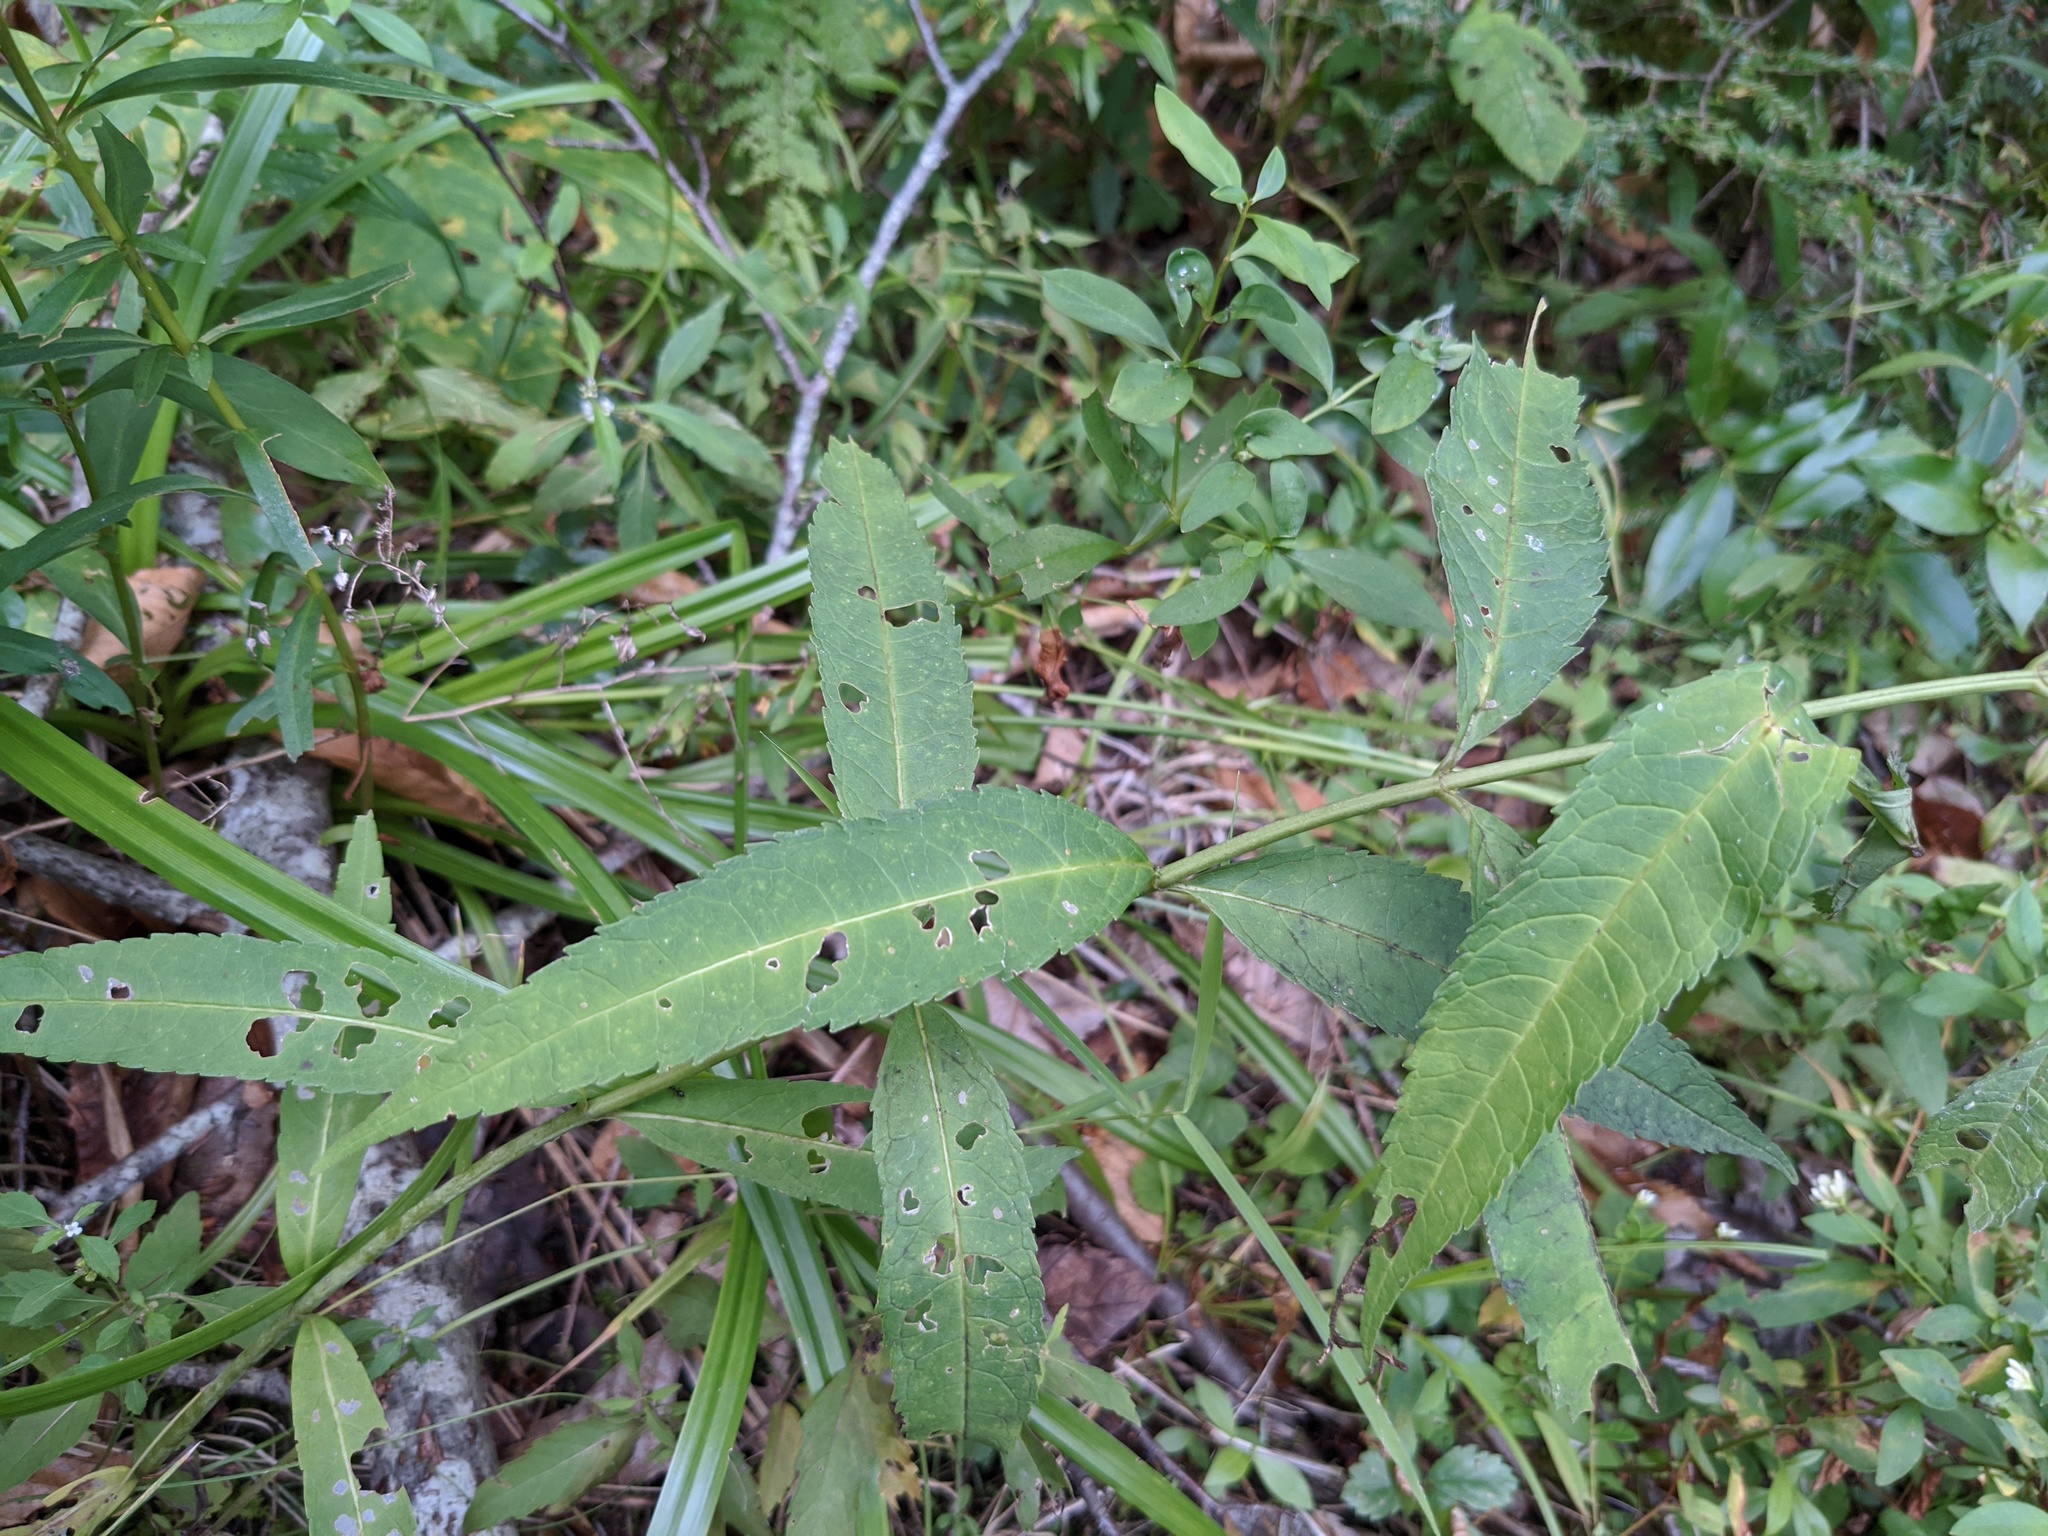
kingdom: Plantae
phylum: Tracheophyta
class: Magnoliopsida
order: Lamiales
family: Plantaginaceae
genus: Chelone
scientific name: Chelone glabra
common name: Snakehead
